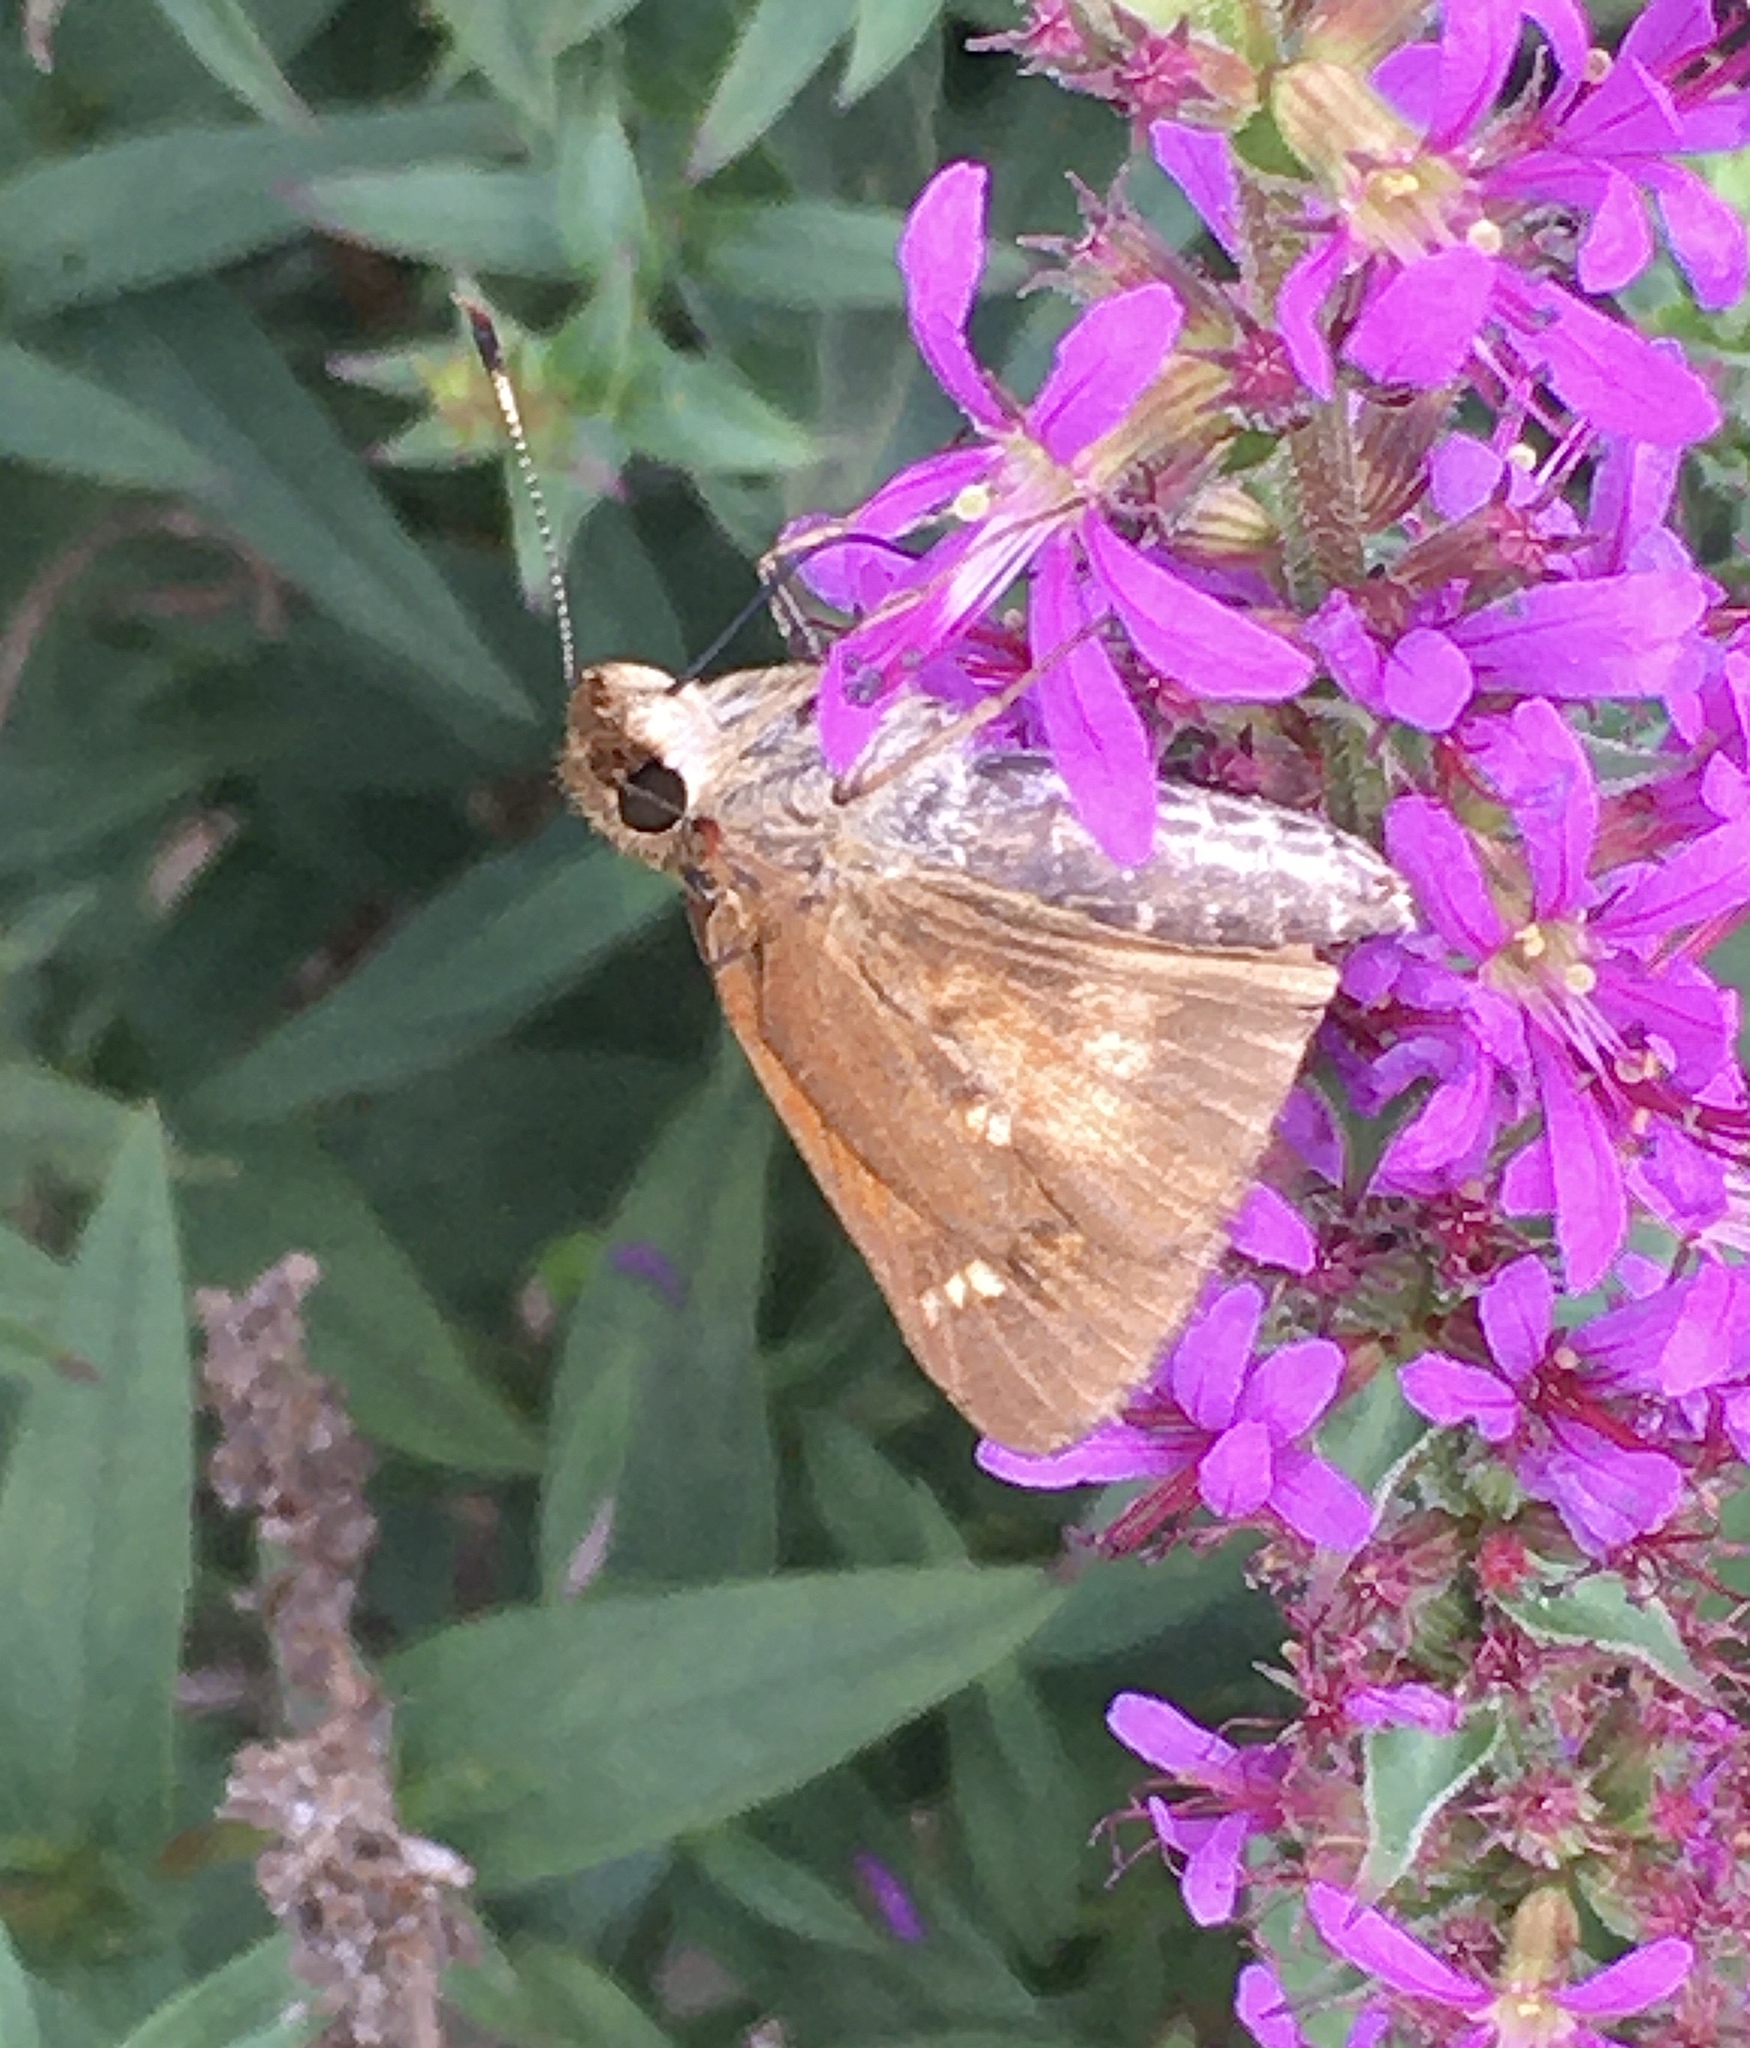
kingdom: Animalia
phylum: Arthropoda
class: Insecta
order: Lepidoptera
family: Hesperiidae
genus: Poanes
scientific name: Poanes viator
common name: Broad-winged skipper
